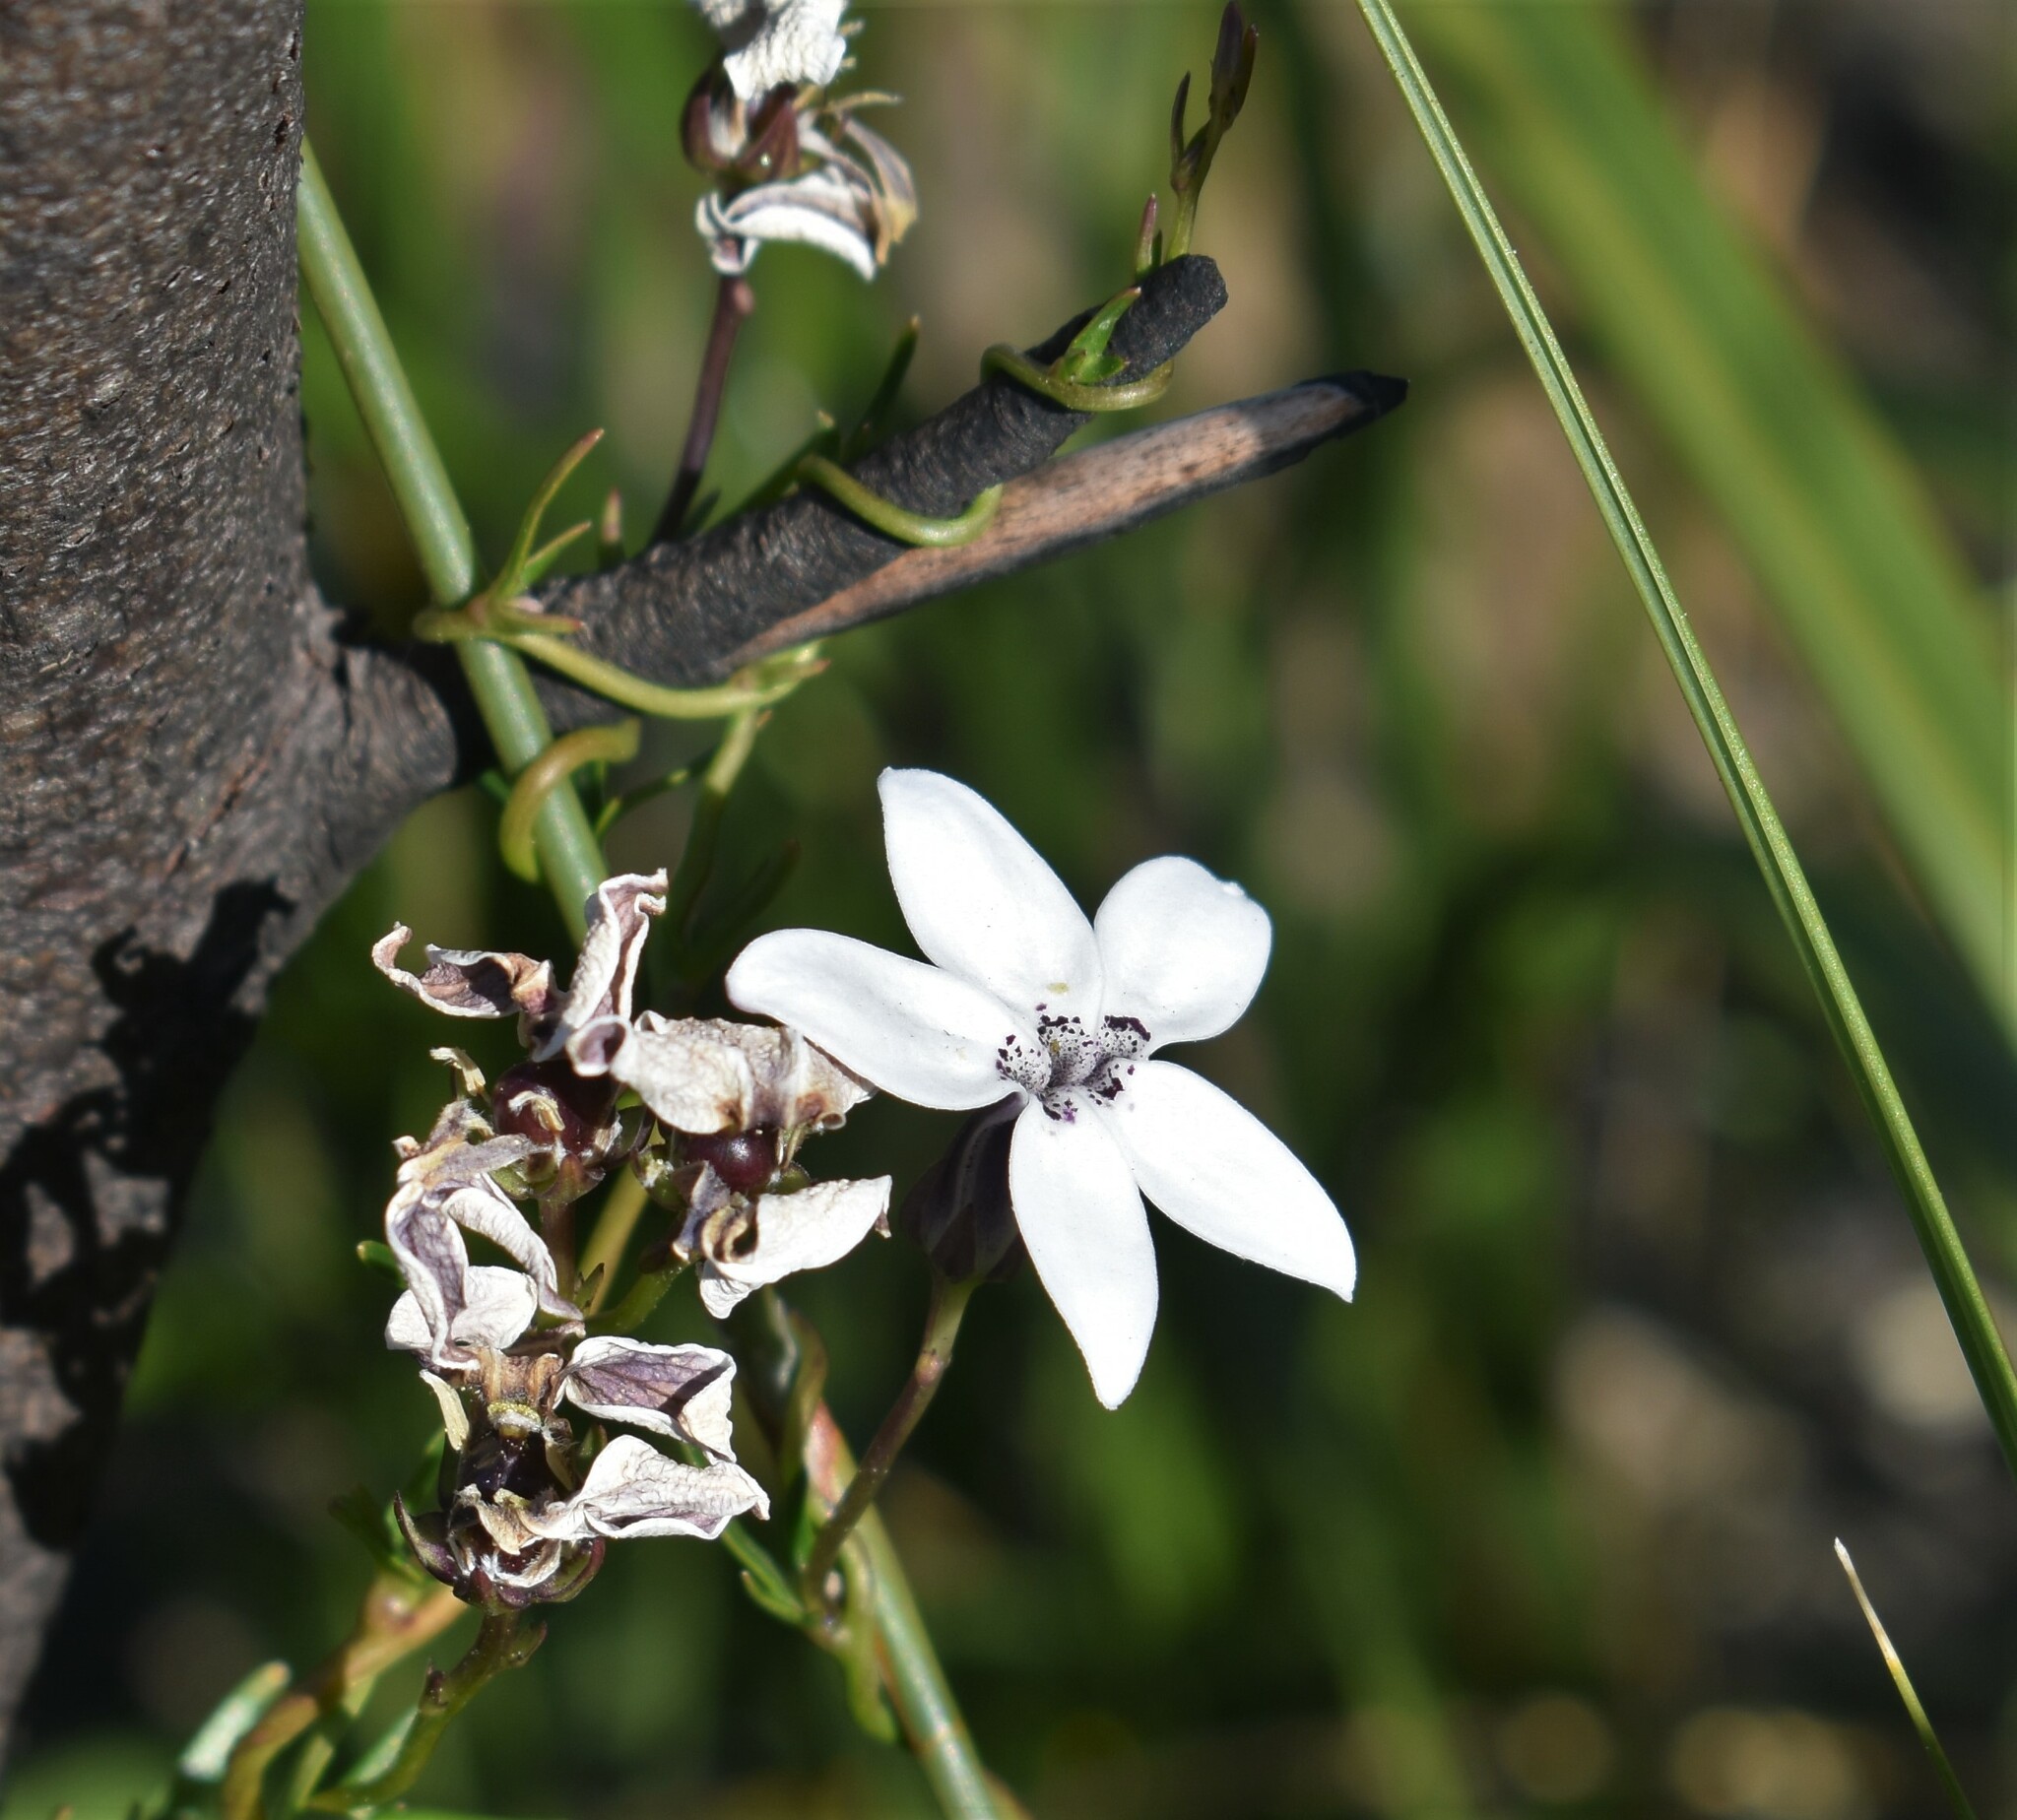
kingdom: Plantae
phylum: Tracheophyta
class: Magnoliopsida
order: Asterales
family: Campanulaceae
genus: Cyphia
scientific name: Cyphia volubilis
